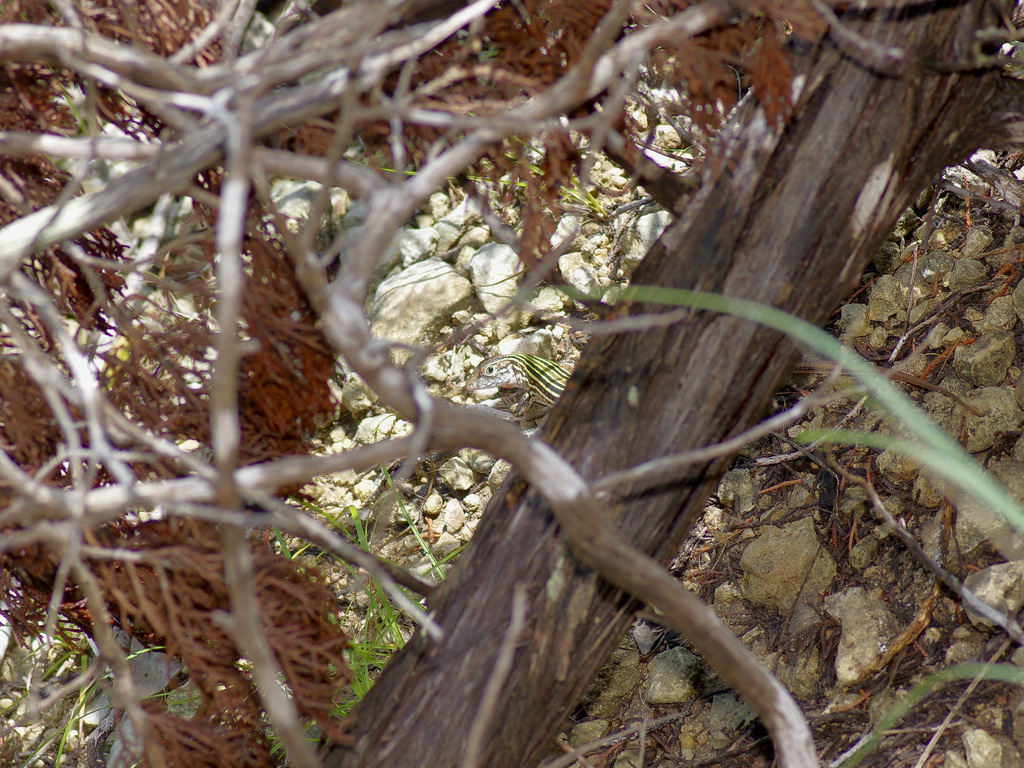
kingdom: Animalia
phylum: Chordata
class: Squamata
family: Teiidae
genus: Aspidoscelis
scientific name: Aspidoscelis gularis
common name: Eastern spotted whiptail
